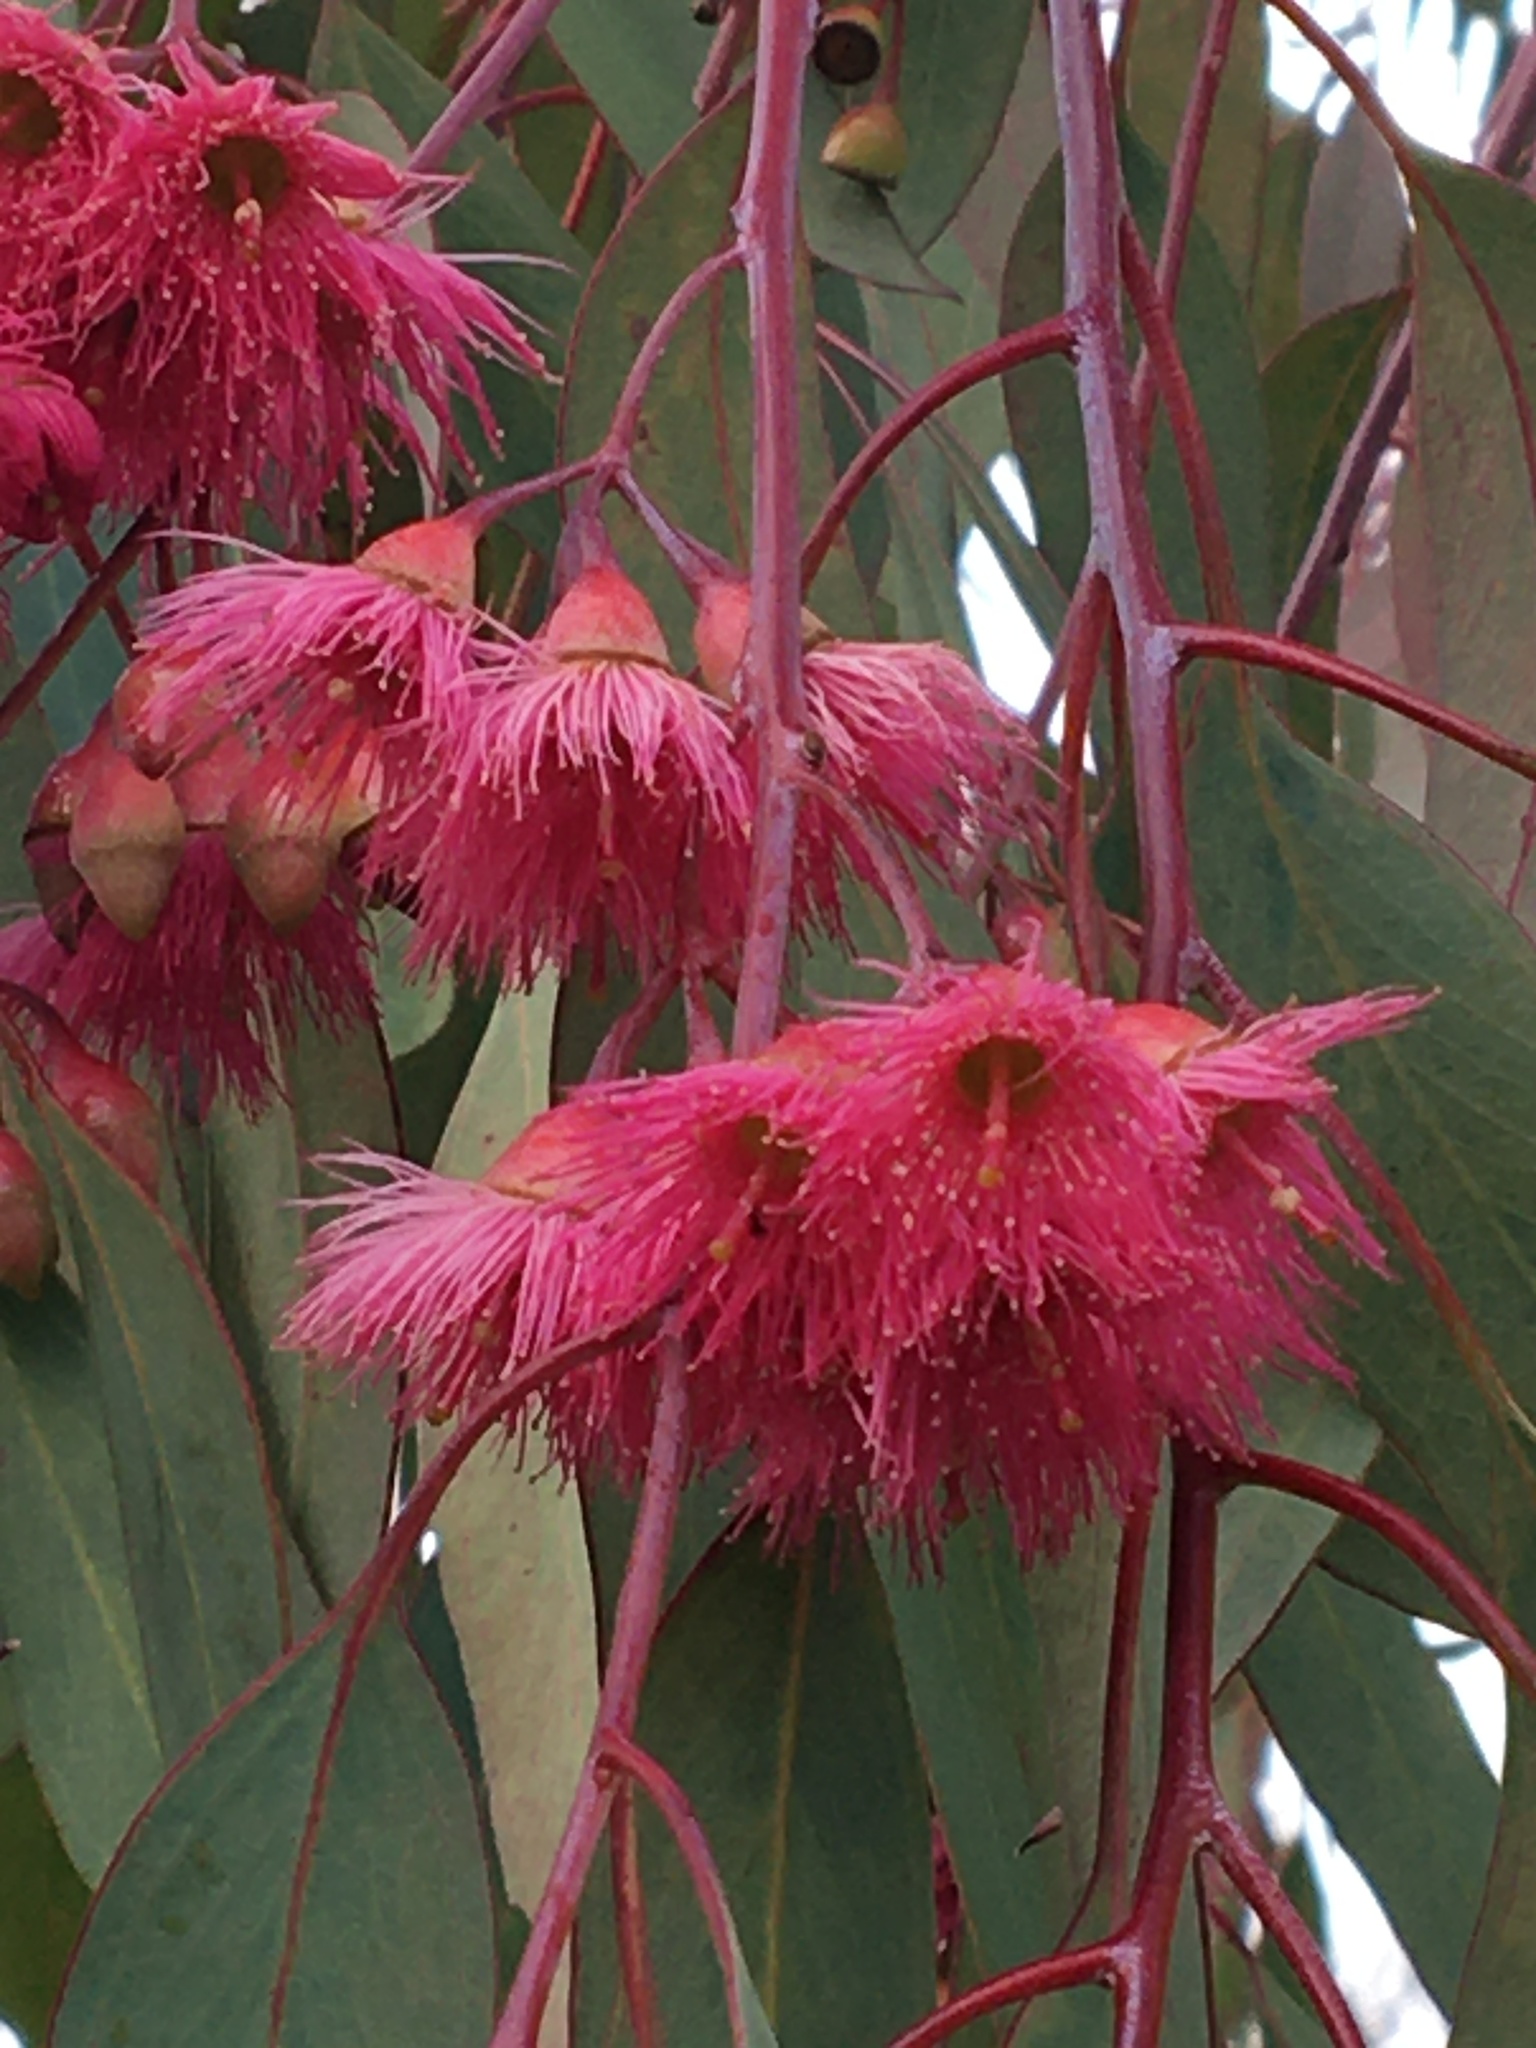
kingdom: Plantae
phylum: Tracheophyta
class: Magnoliopsida
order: Myrtales
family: Myrtaceae
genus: Eucalyptus
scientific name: Eucalyptus sideroxylon
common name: Red ironbark
